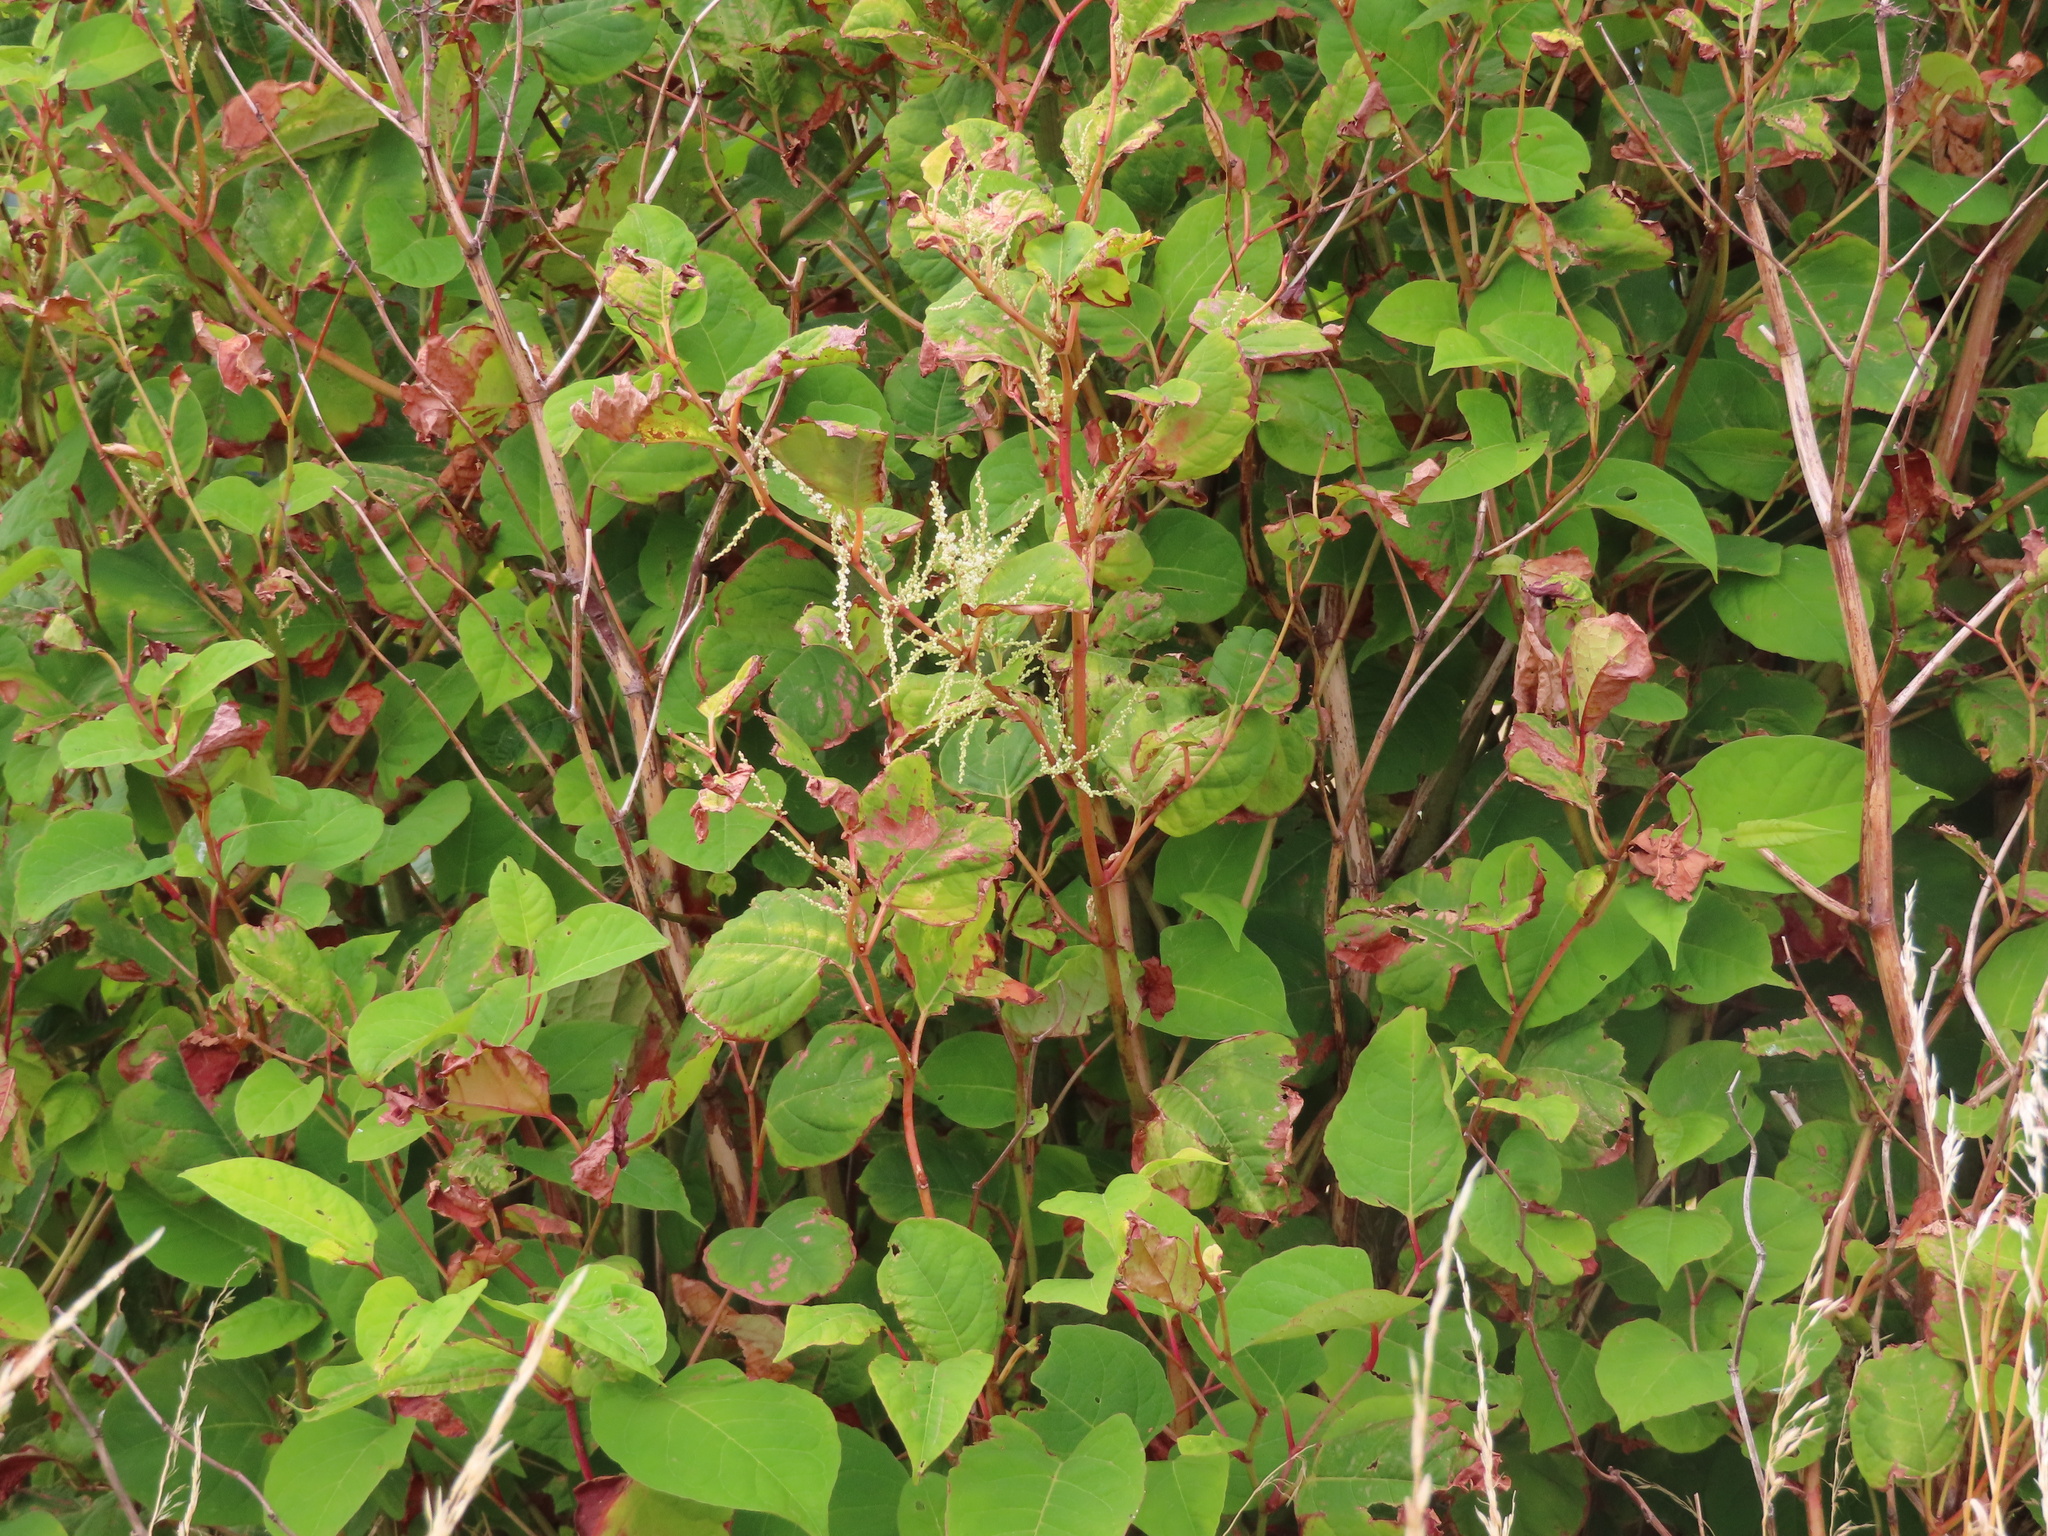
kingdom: Plantae
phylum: Tracheophyta
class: Magnoliopsida
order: Caryophyllales
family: Polygonaceae
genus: Reynoutria
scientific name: Reynoutria japonica
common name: Japanese knotweed
